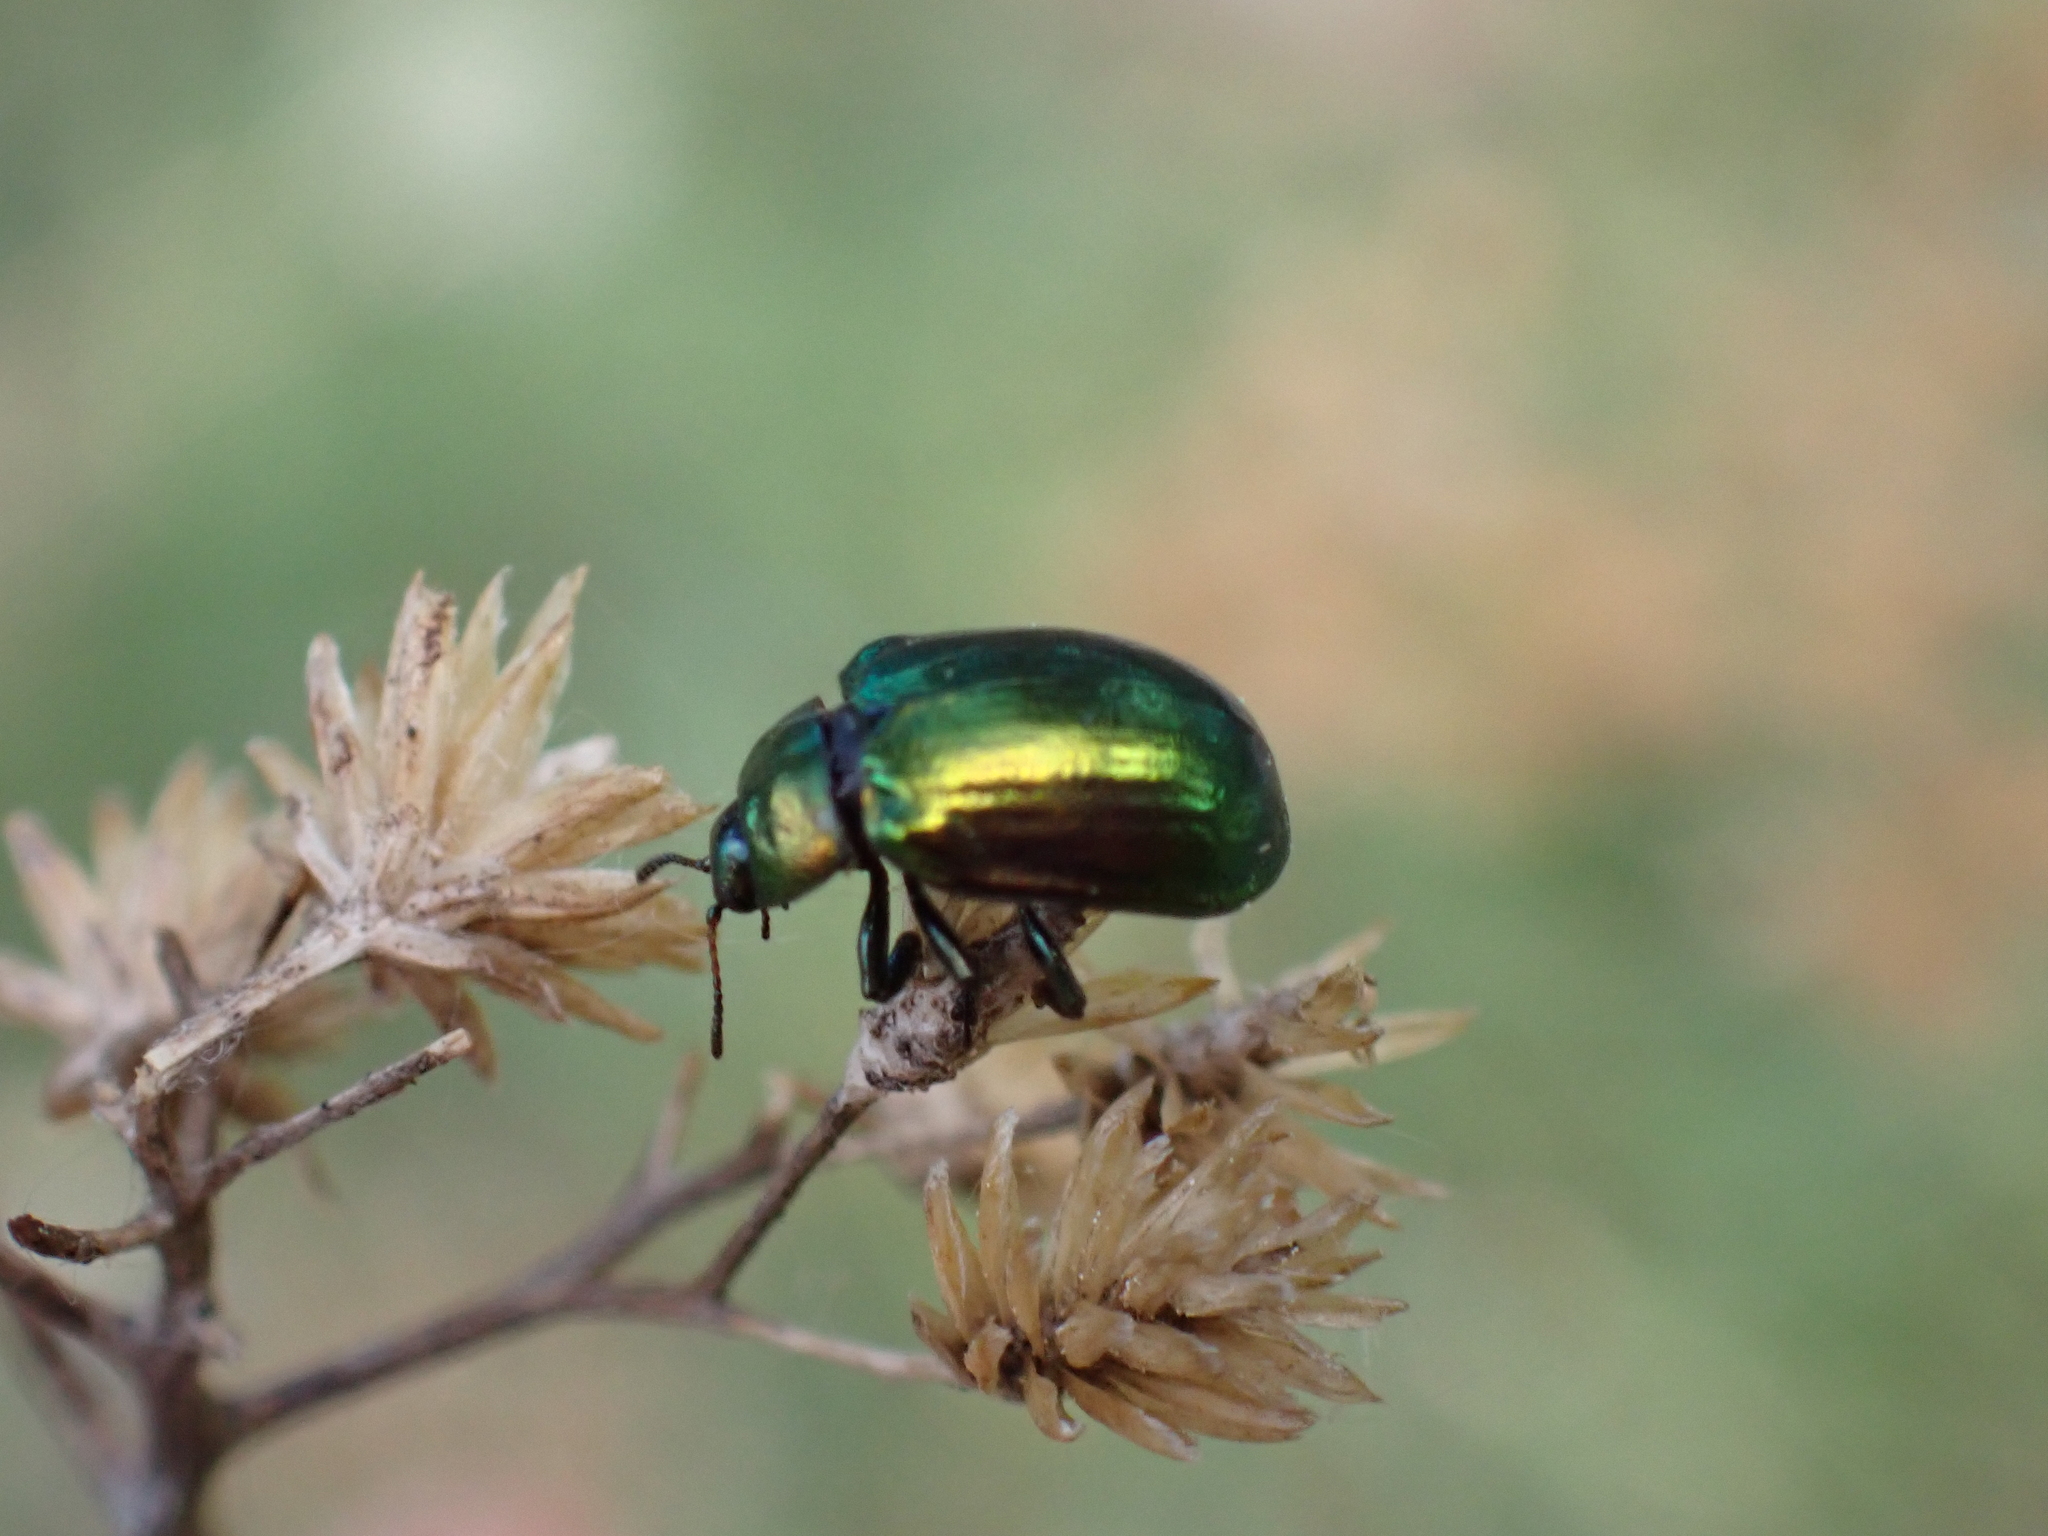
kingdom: Animalia
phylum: Arthropoda
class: Insecta
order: Coleoptera
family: Chrysomelidae
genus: Plagiosterna
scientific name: Plagiosterna aenea
